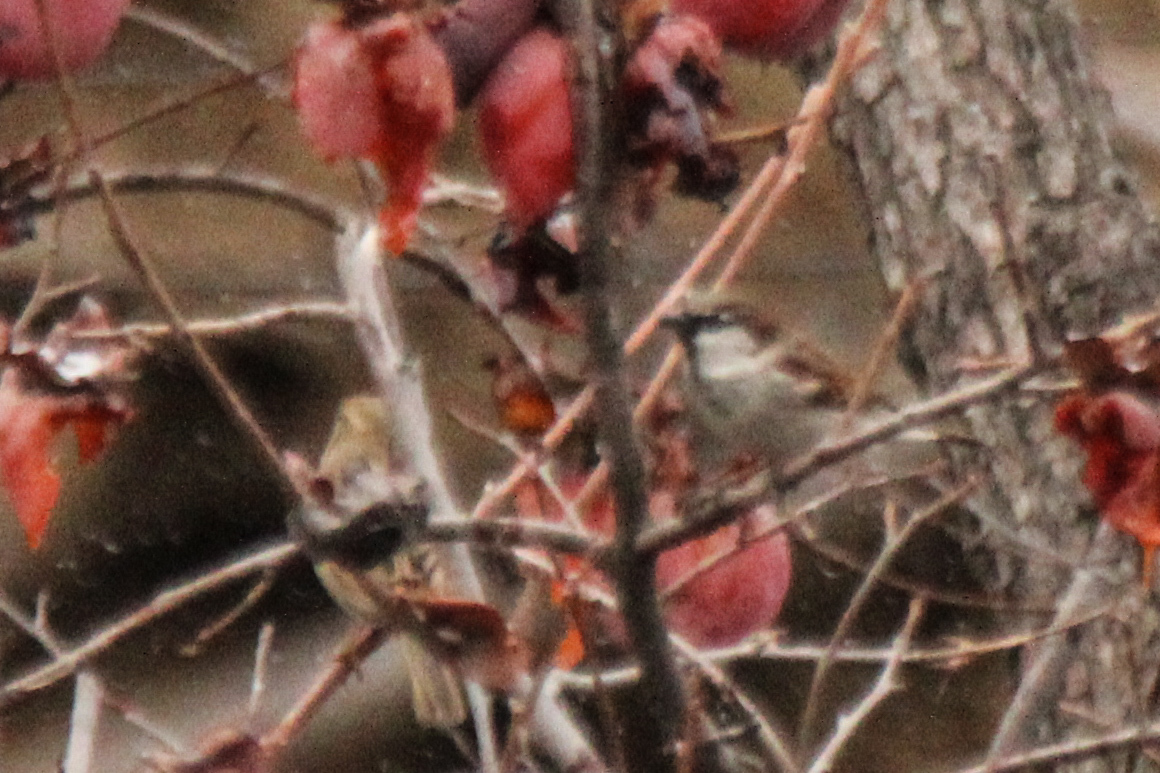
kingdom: Animalia
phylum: Chordata
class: Aves
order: Passeriformes
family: Passeridae
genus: Passer
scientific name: Passer domesticus
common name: House sparrow
